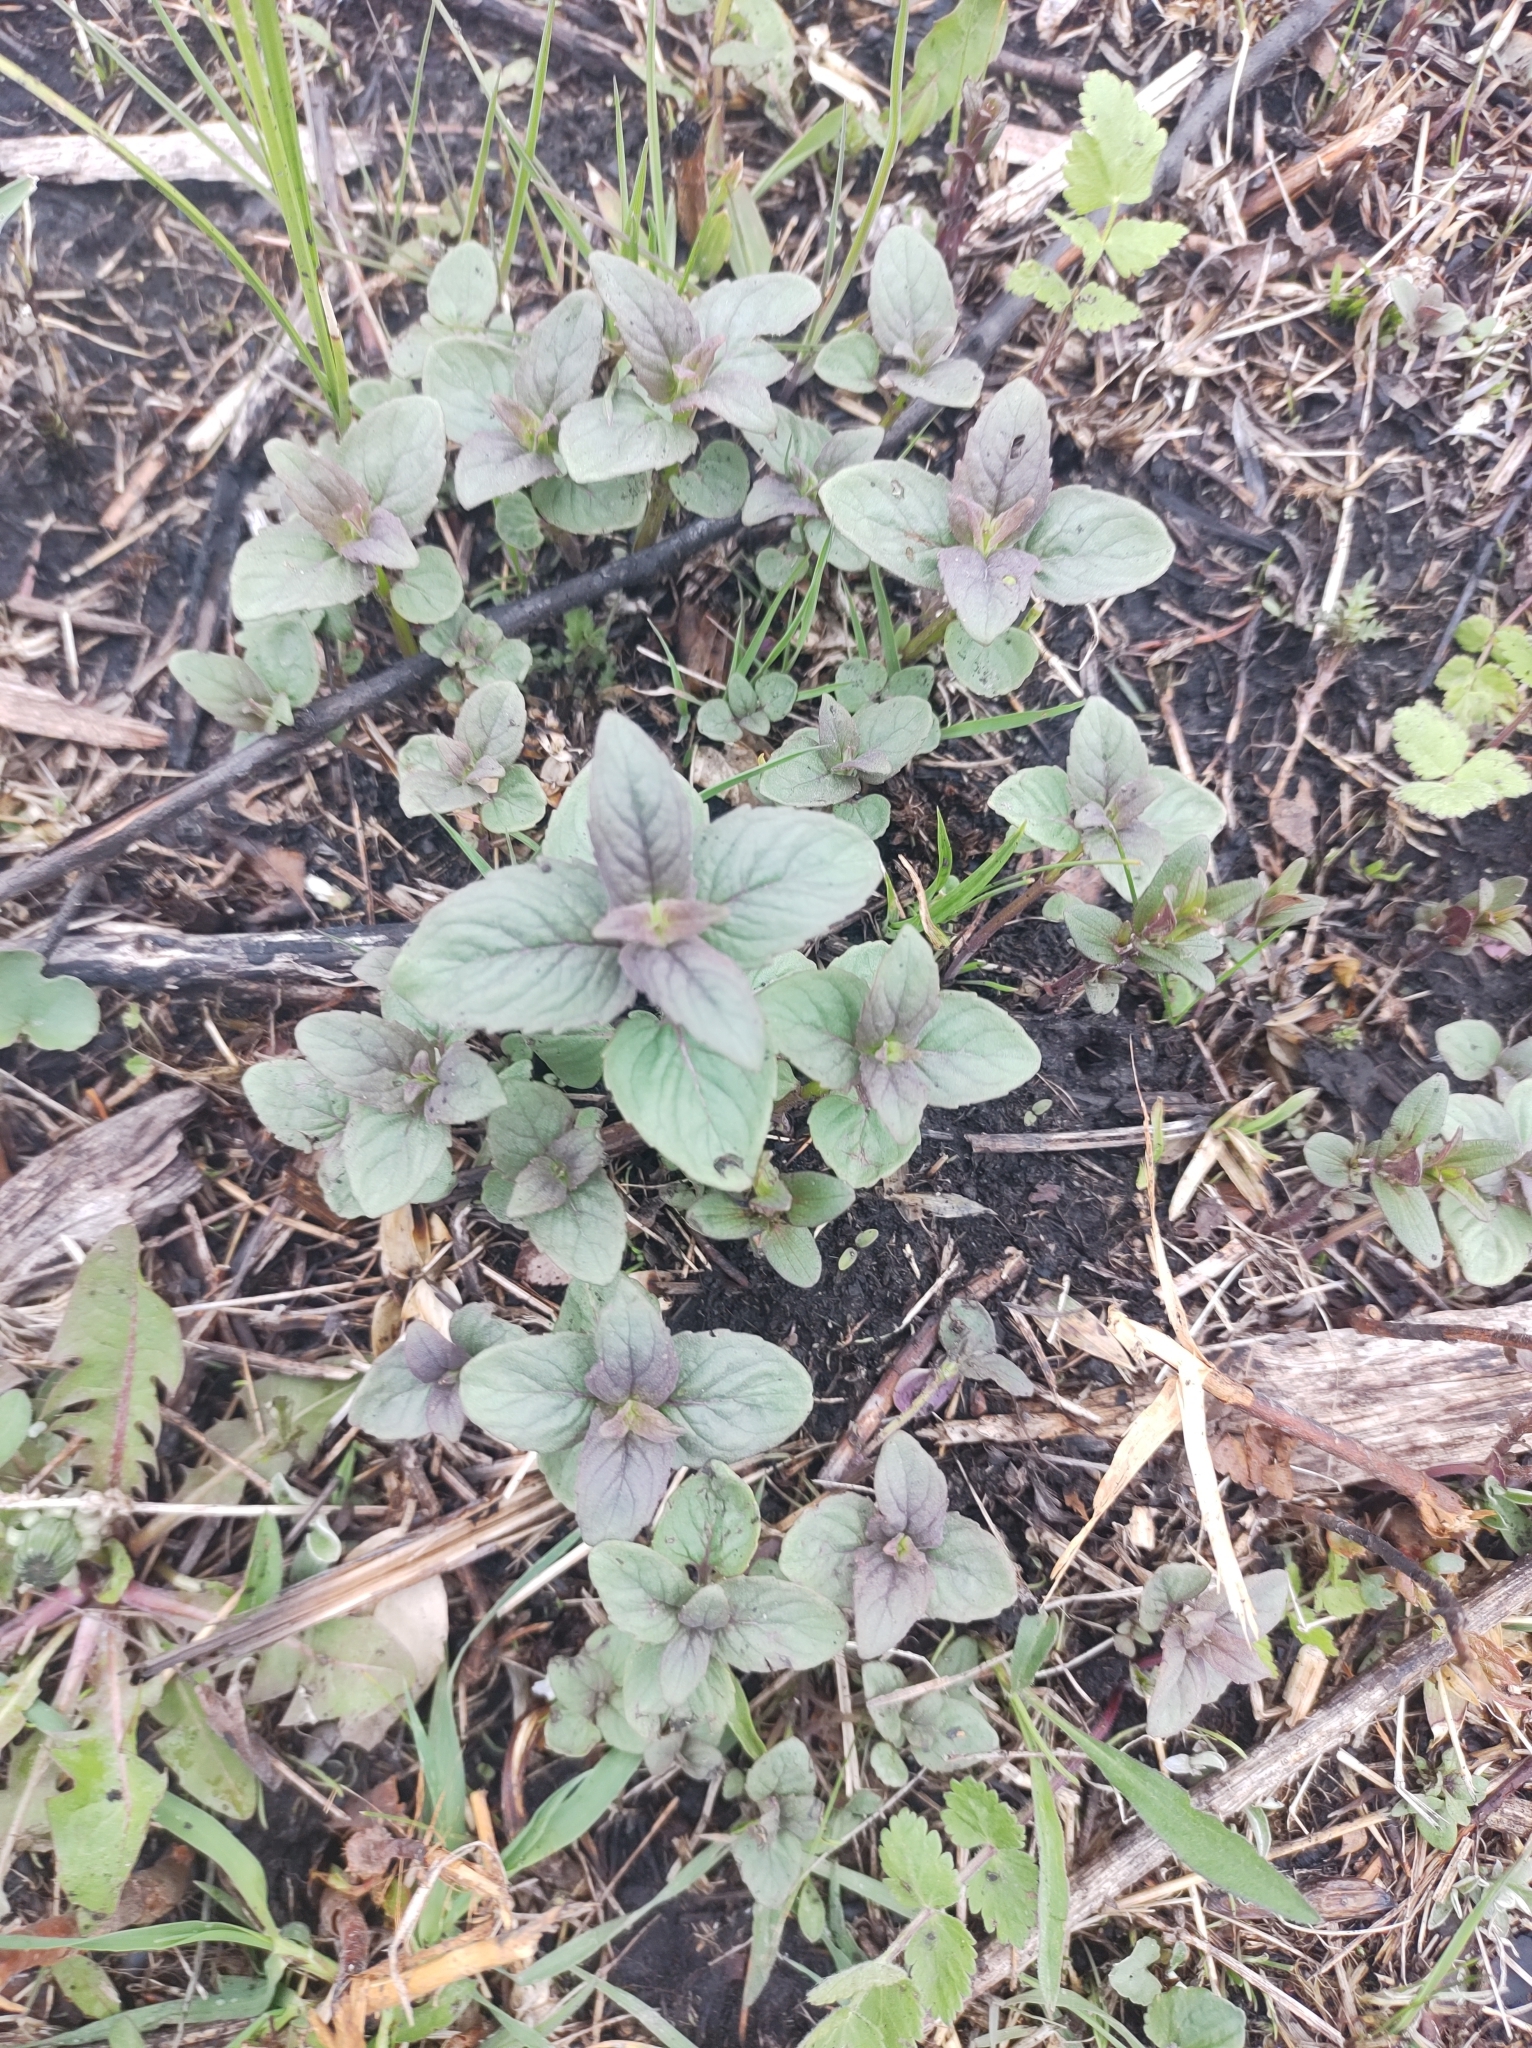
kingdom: Plantae
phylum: Tracheophyta
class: Magnoliopsida
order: Lamiales
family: Lamiaceae
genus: Monarda
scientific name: Monarda fistulosa
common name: Purple beebalm
